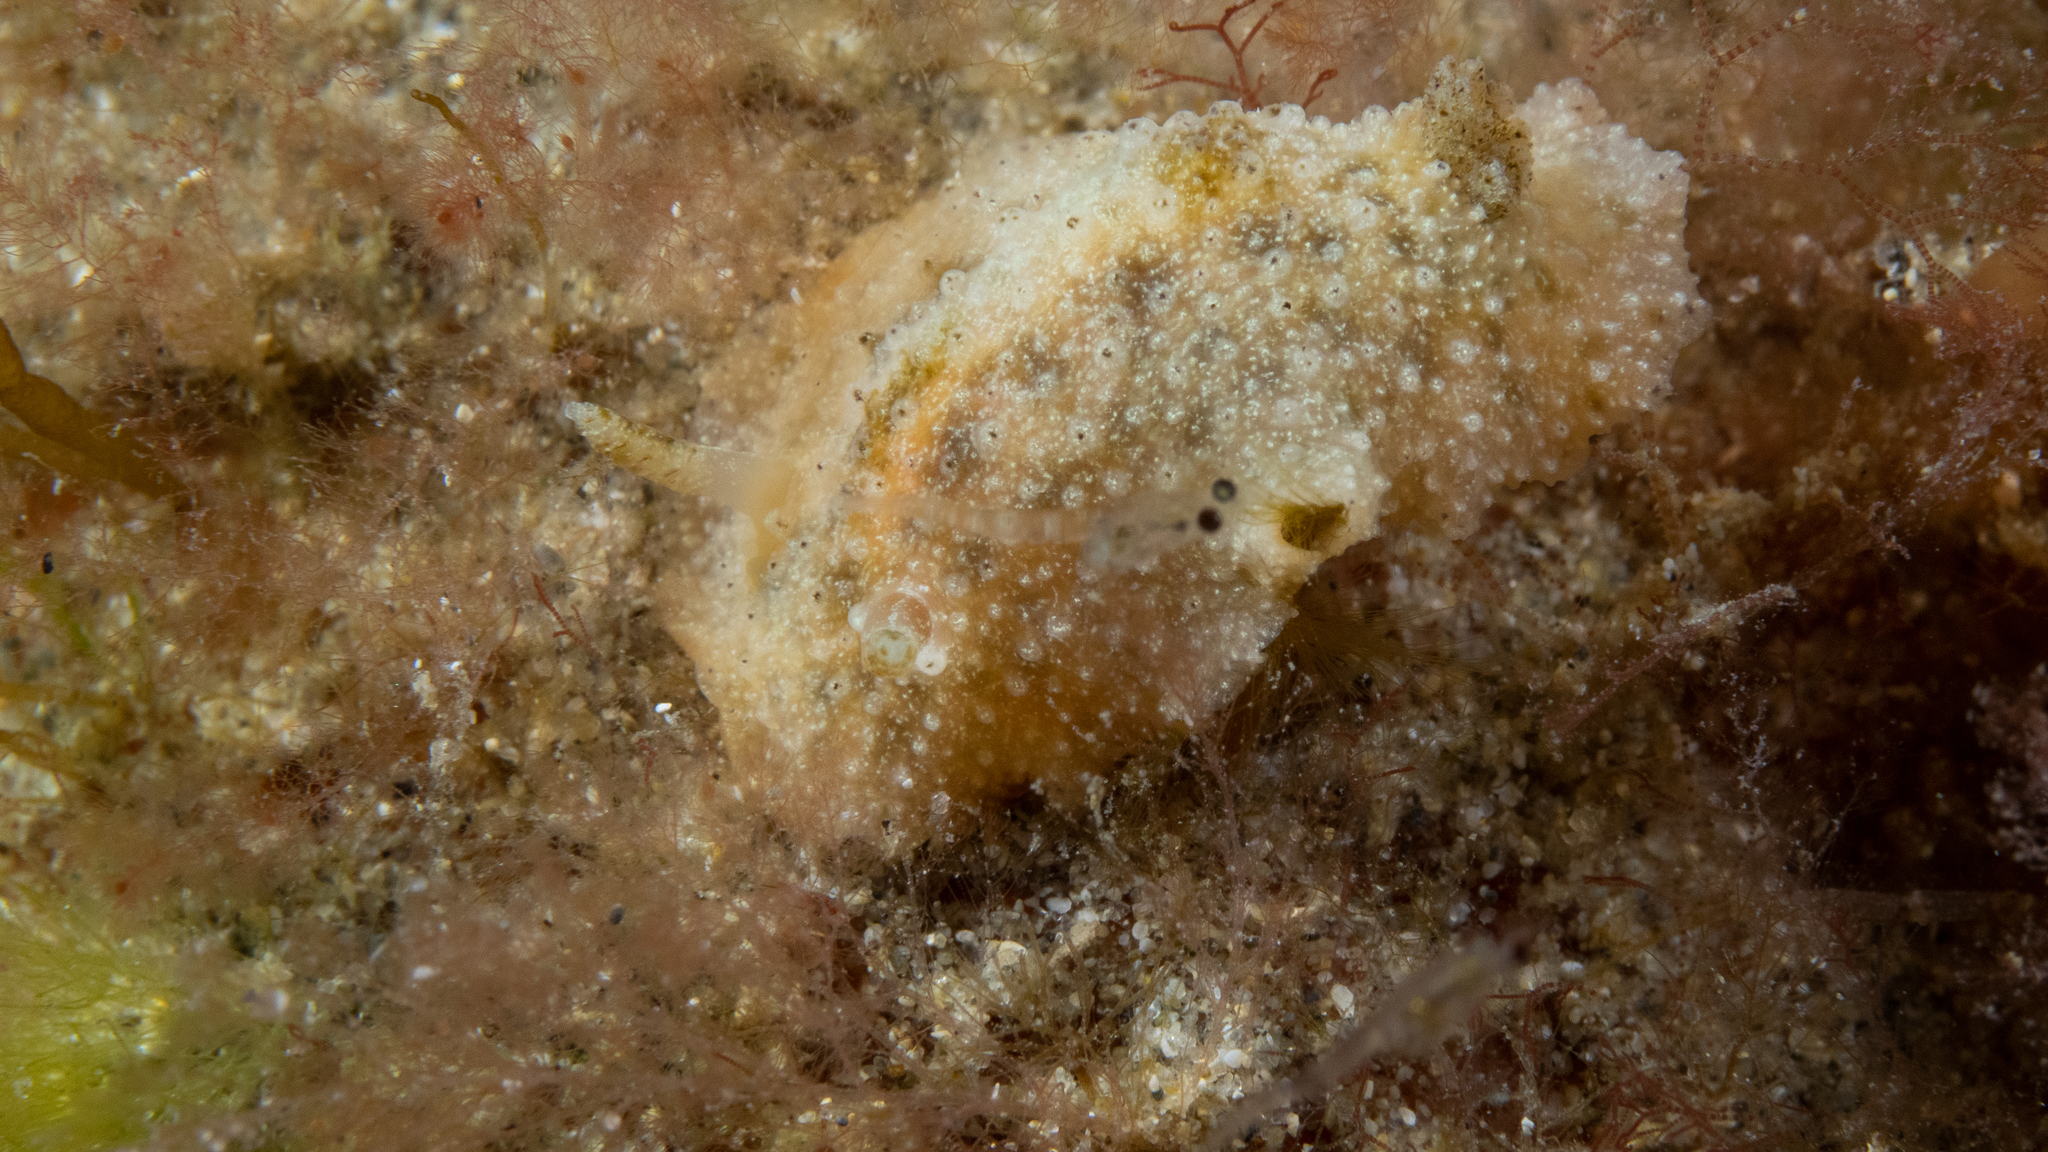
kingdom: Animalia
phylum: Mollusca
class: Gastropoda
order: Nudibranchia
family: Dorididae
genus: Doris
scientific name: Doris cameroni
